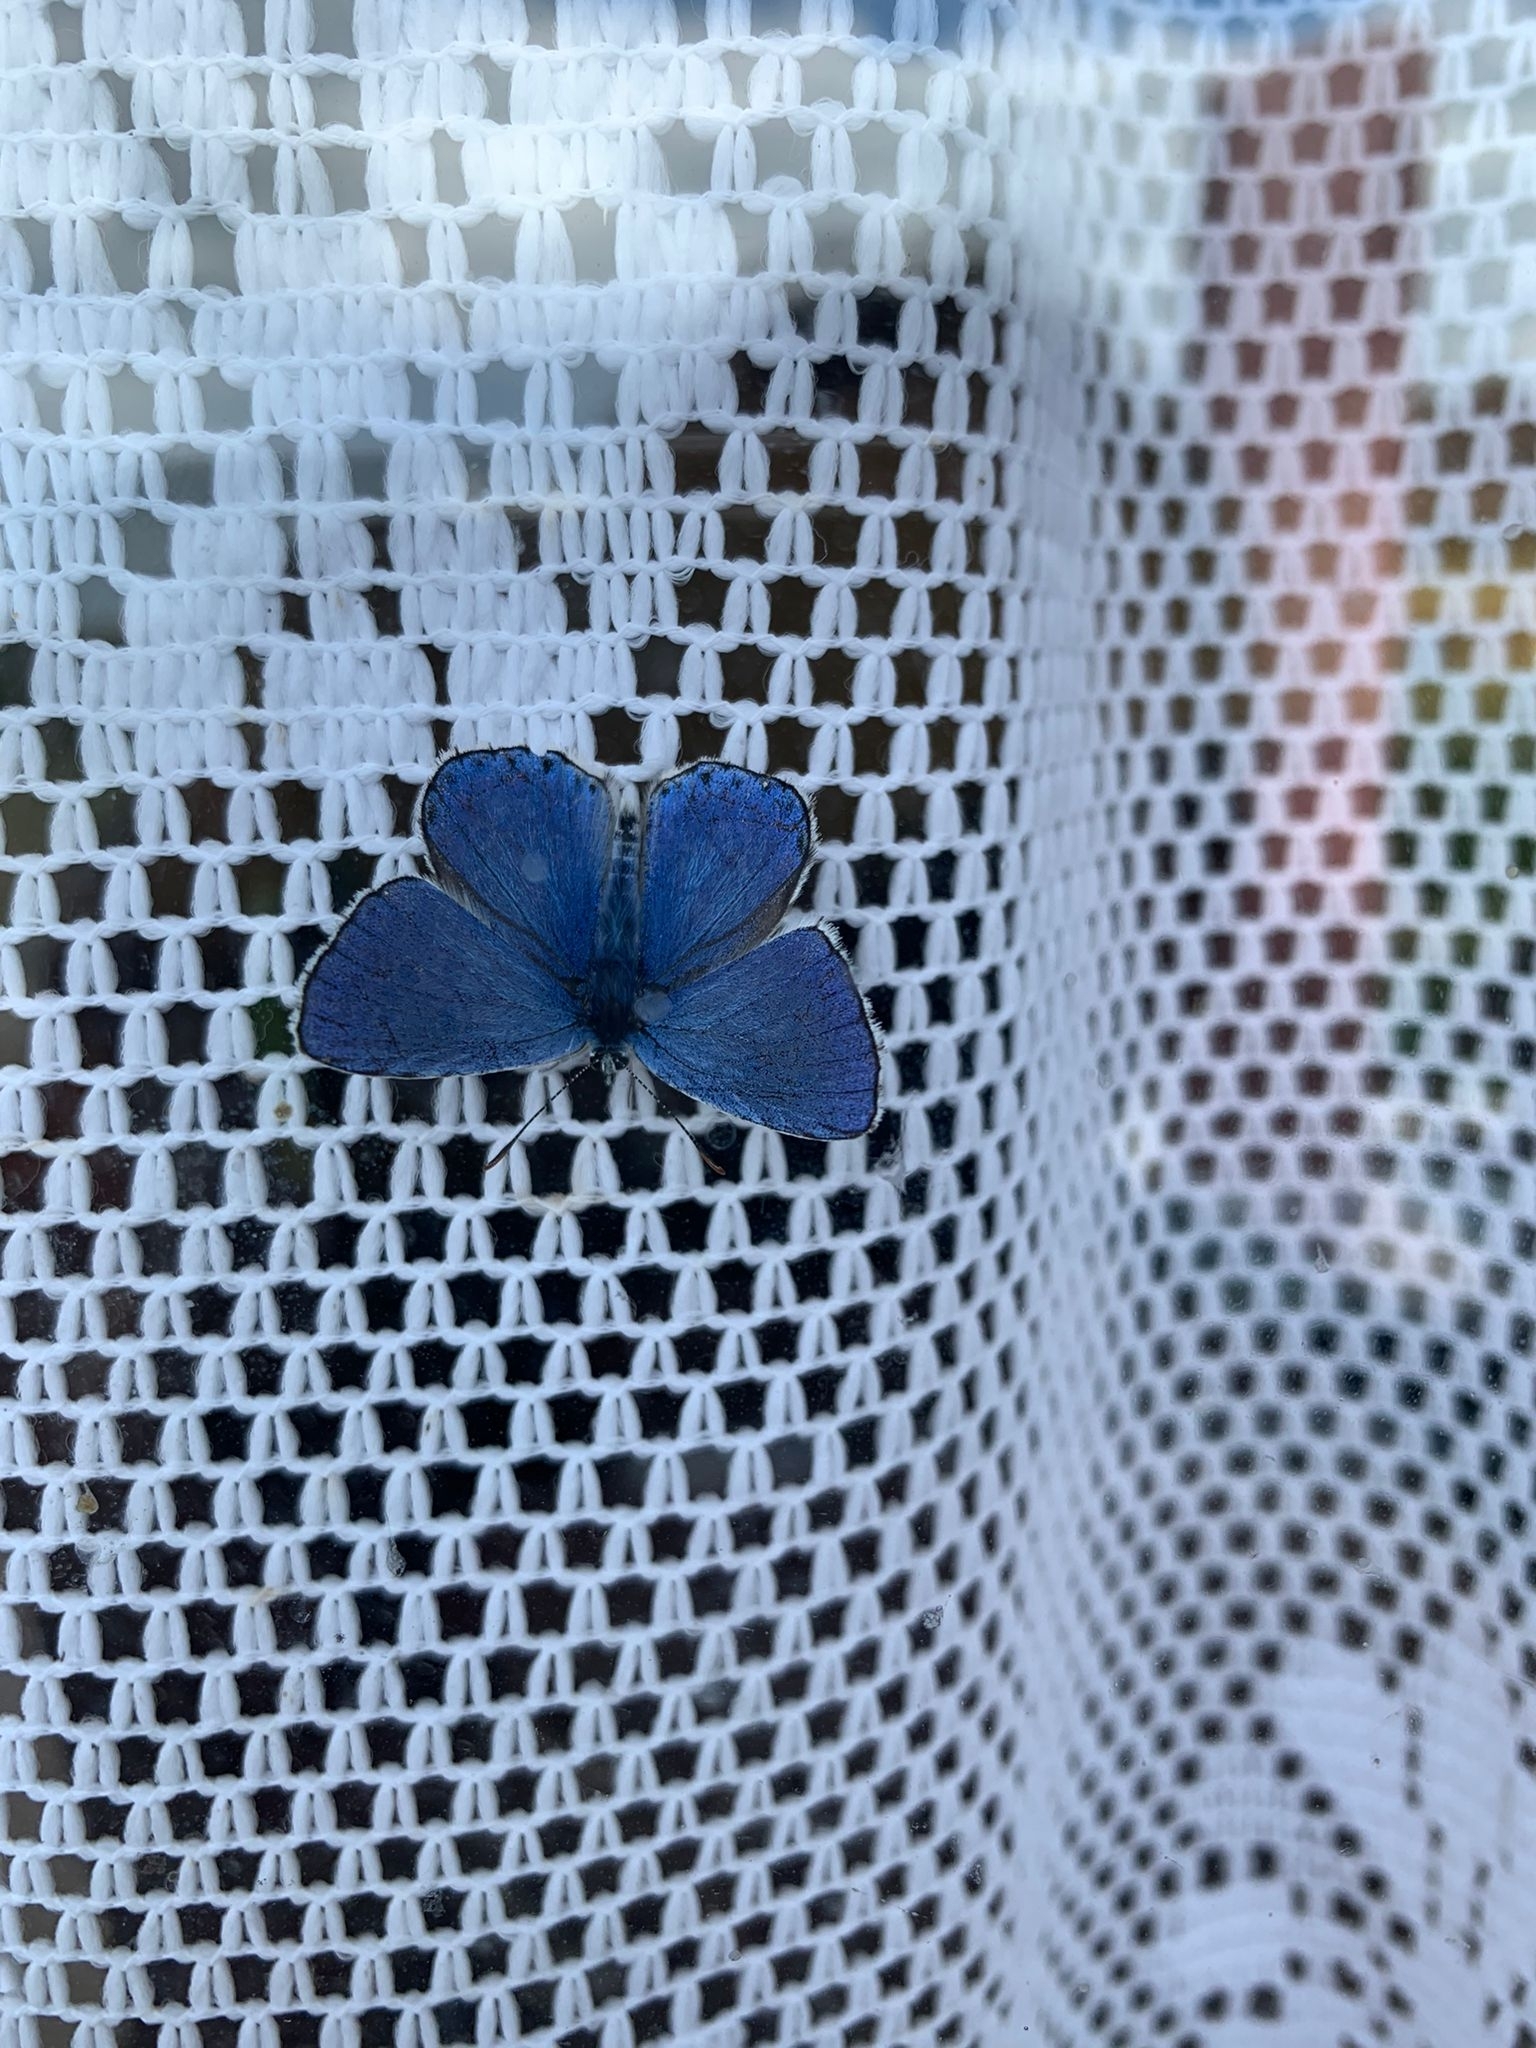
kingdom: Animalia
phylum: Arthropoda
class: Insecta
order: Lepidoptera
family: Lycaenidae
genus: Lysandra
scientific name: Lysandra bellargus
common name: Adonis blue
